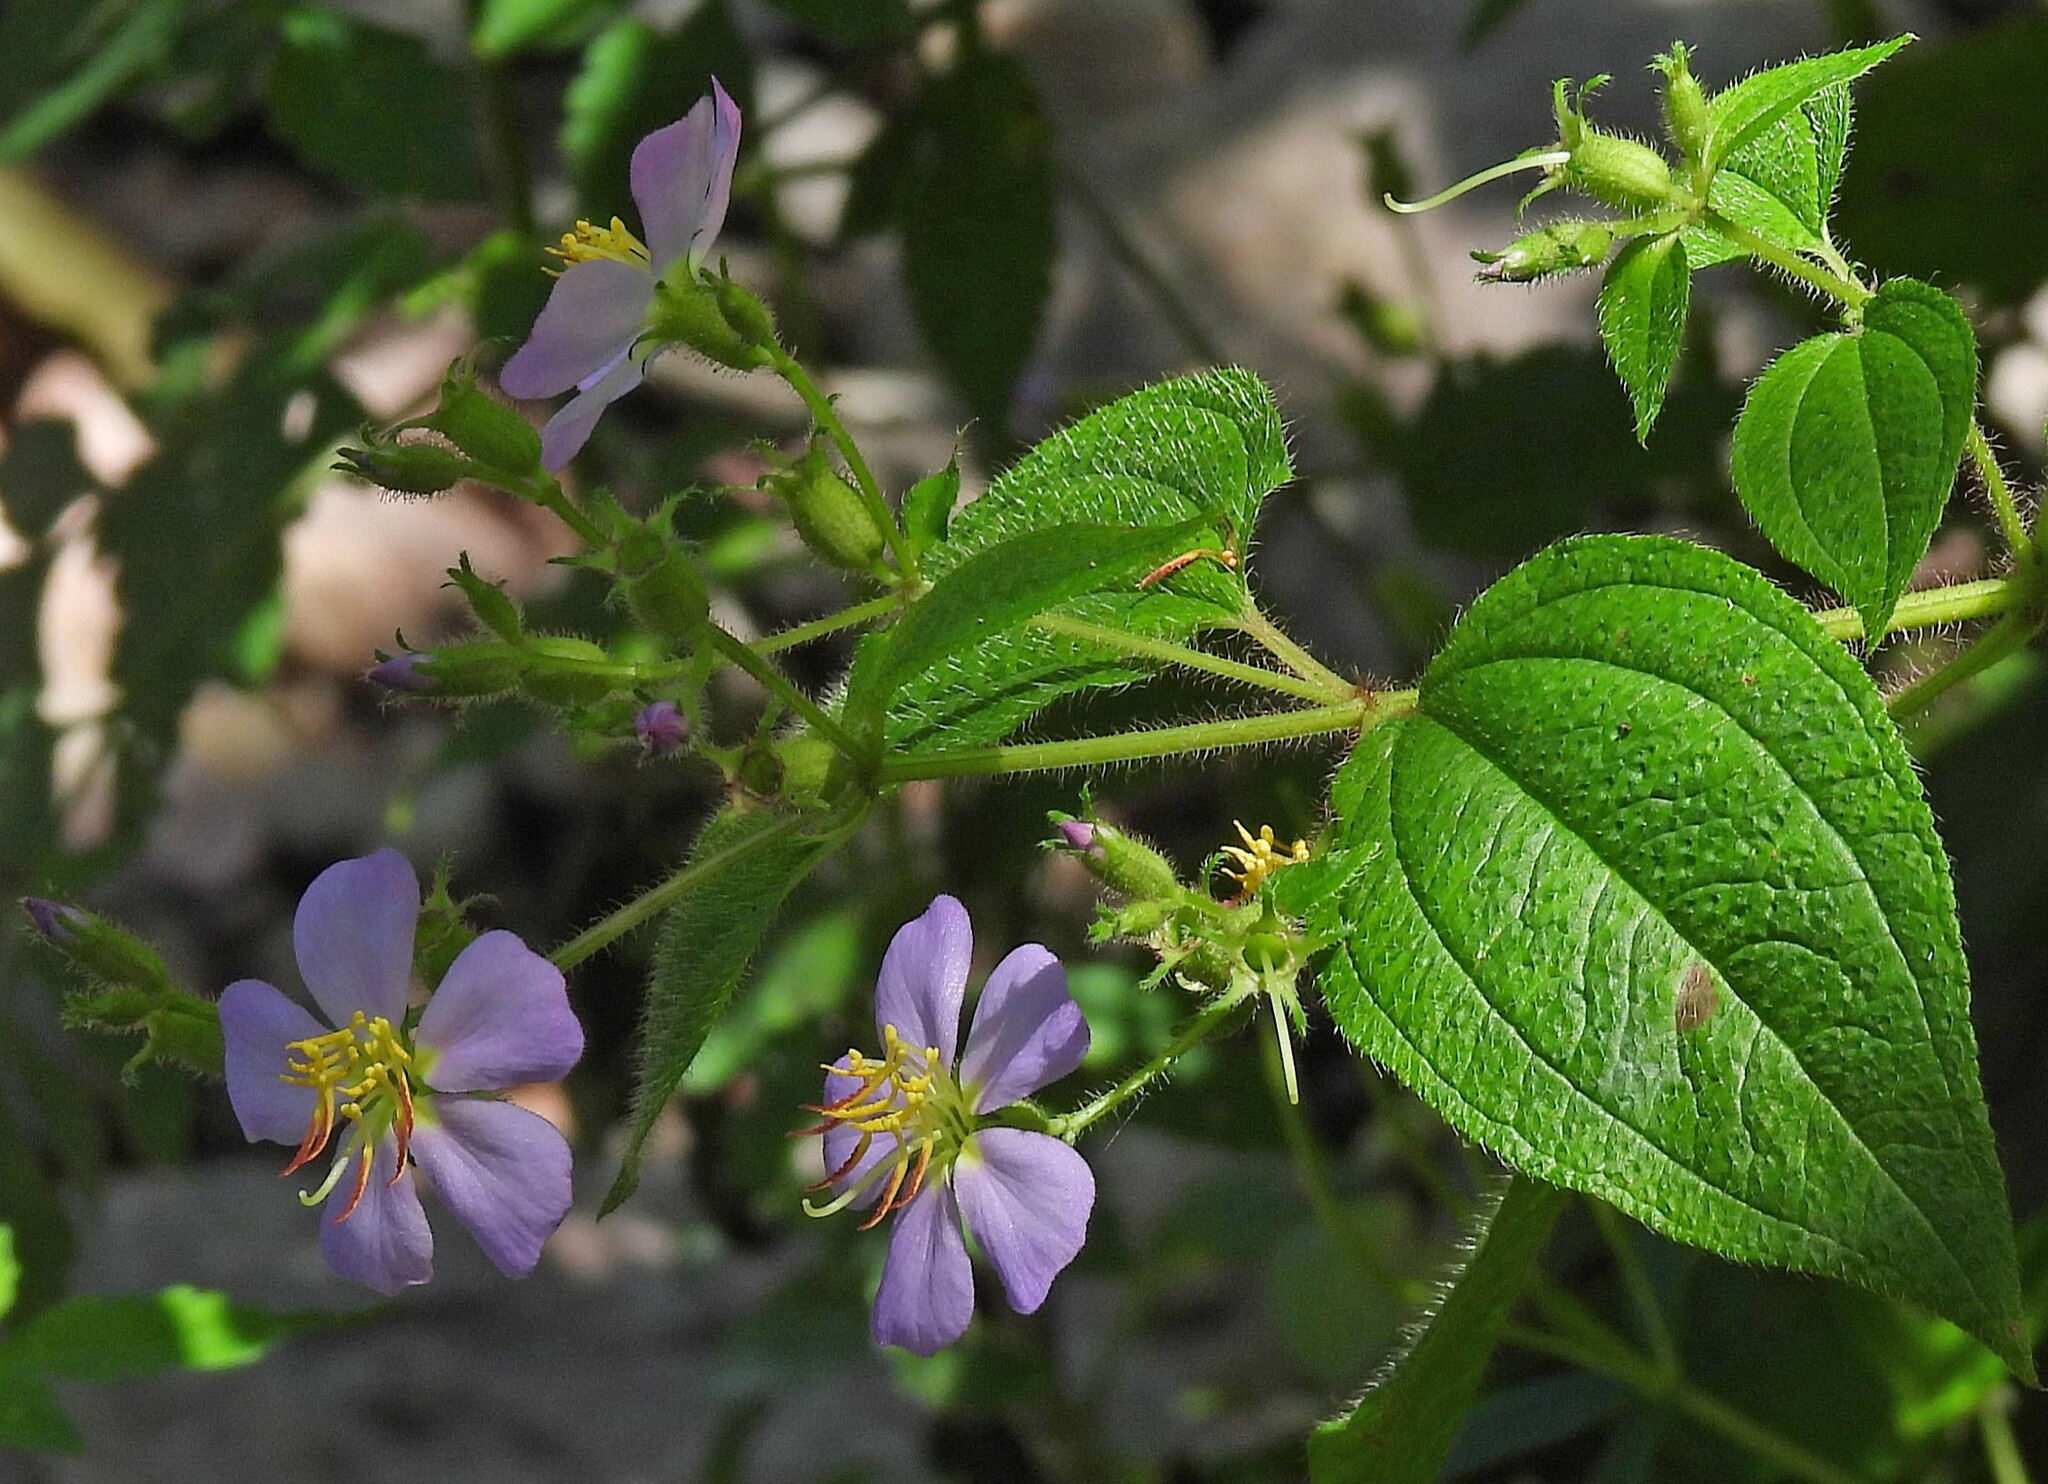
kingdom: Plantae
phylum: Tracheophyta
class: Magnoliopsida
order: Myrtales
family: Melastomataceae
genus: Chaetogastra
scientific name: Chaetogastra brachyphylla
